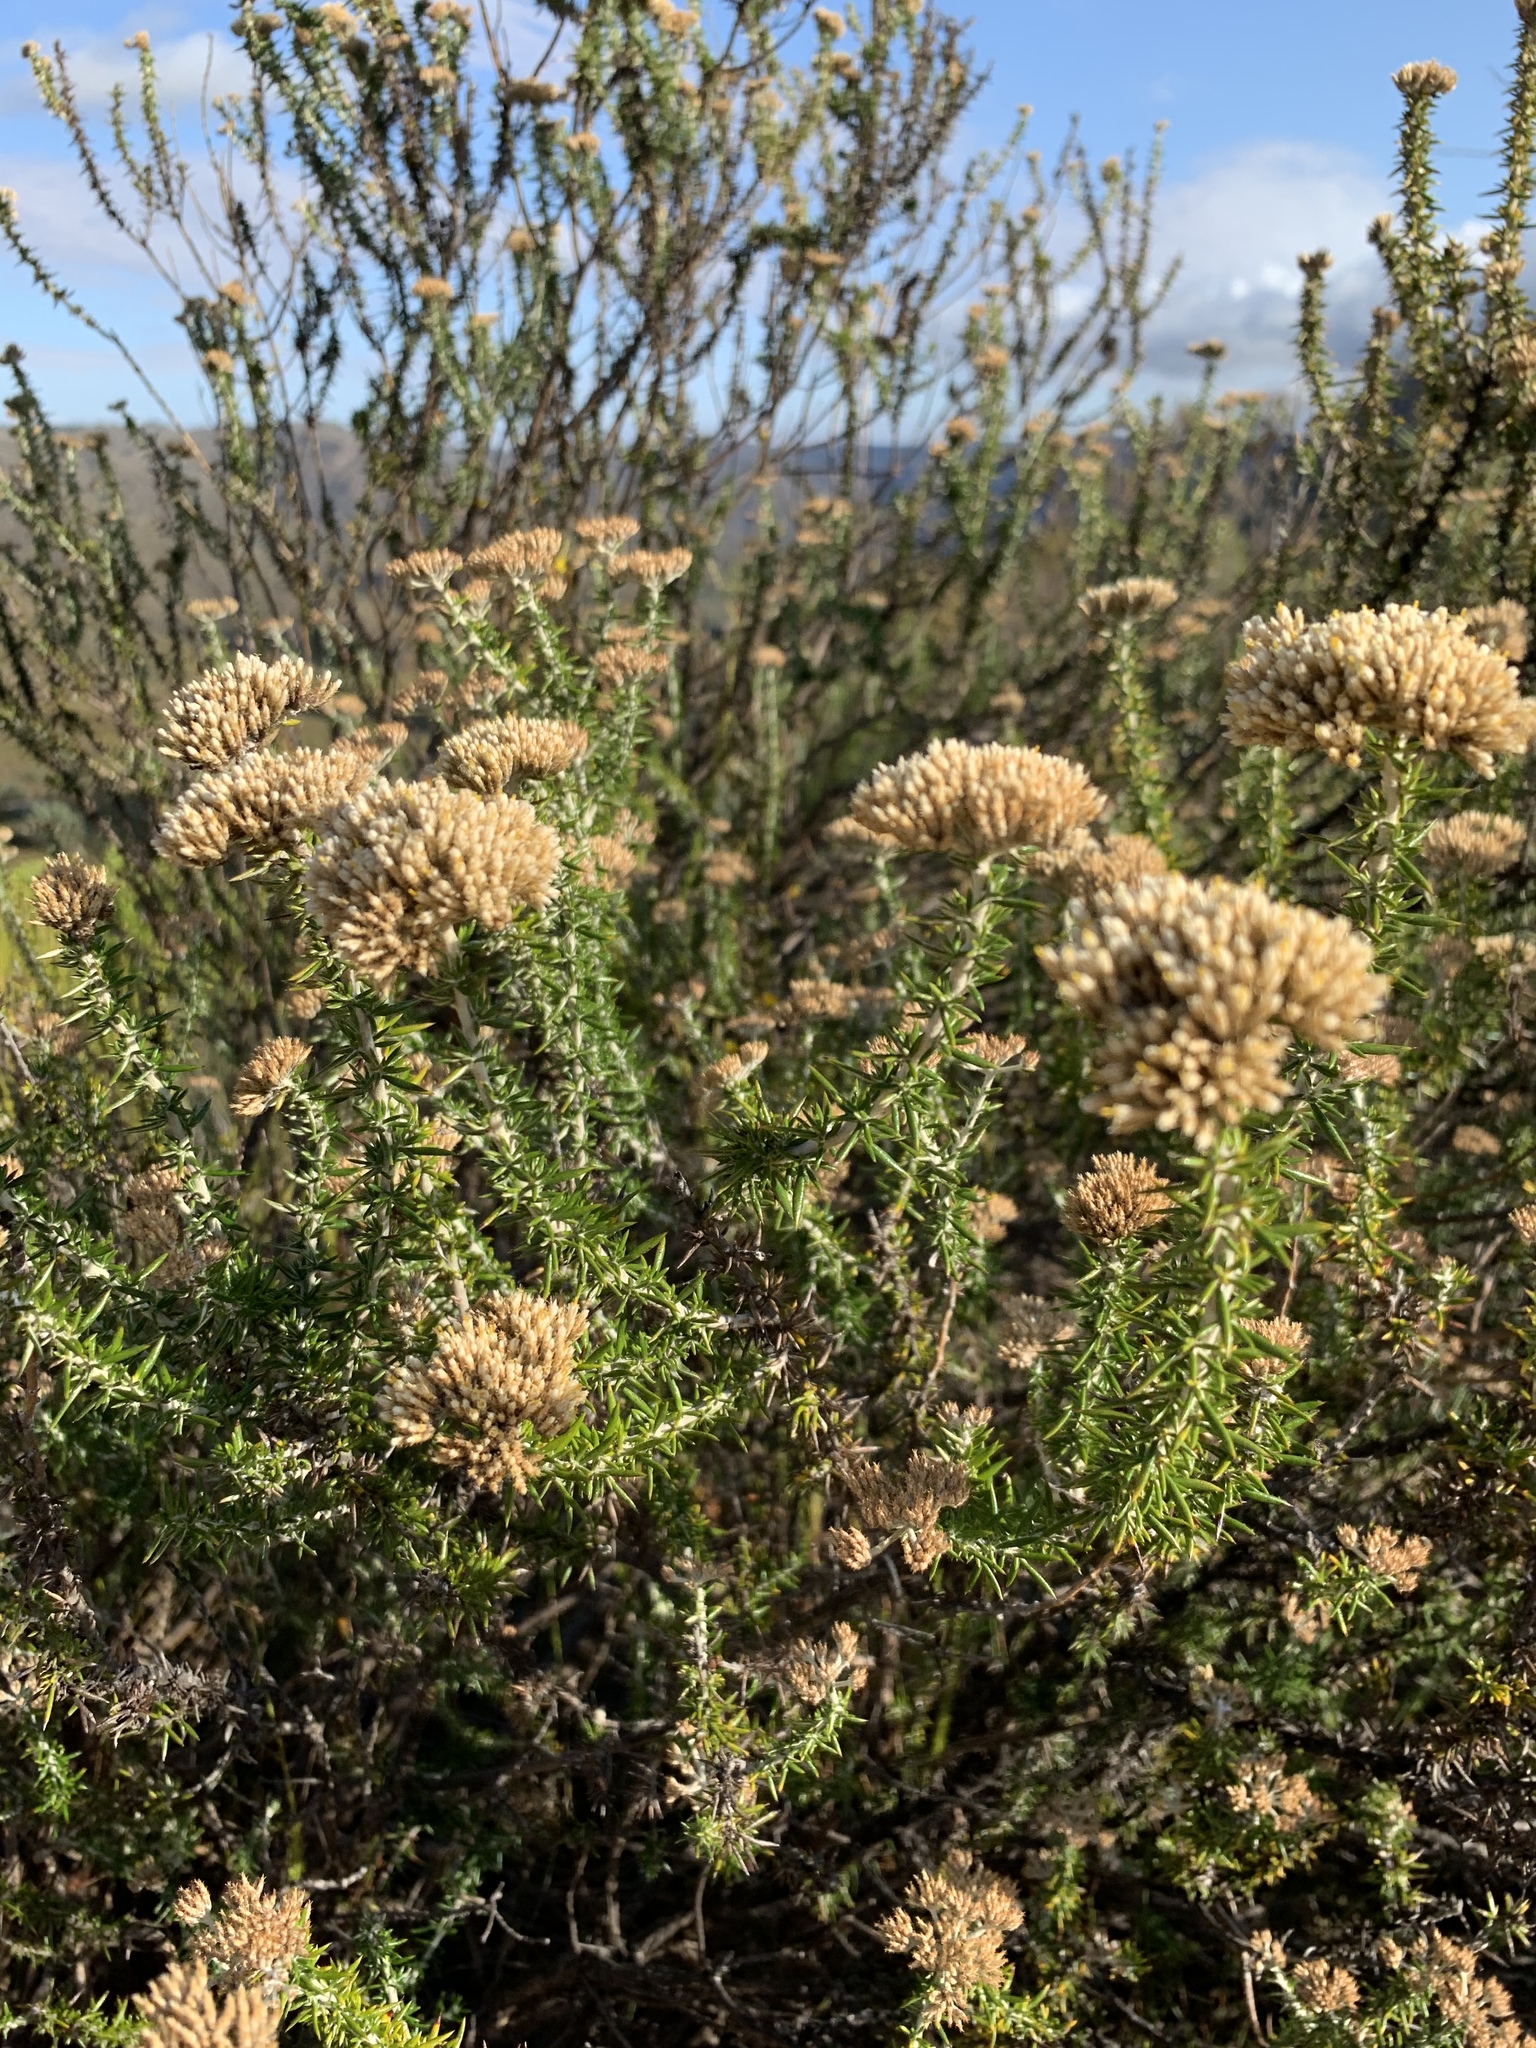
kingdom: Plantae
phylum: Tracheophyta
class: Magnoliopsida
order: Asterales
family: Asteraceae
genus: Metalasia
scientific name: Metalasia densa
